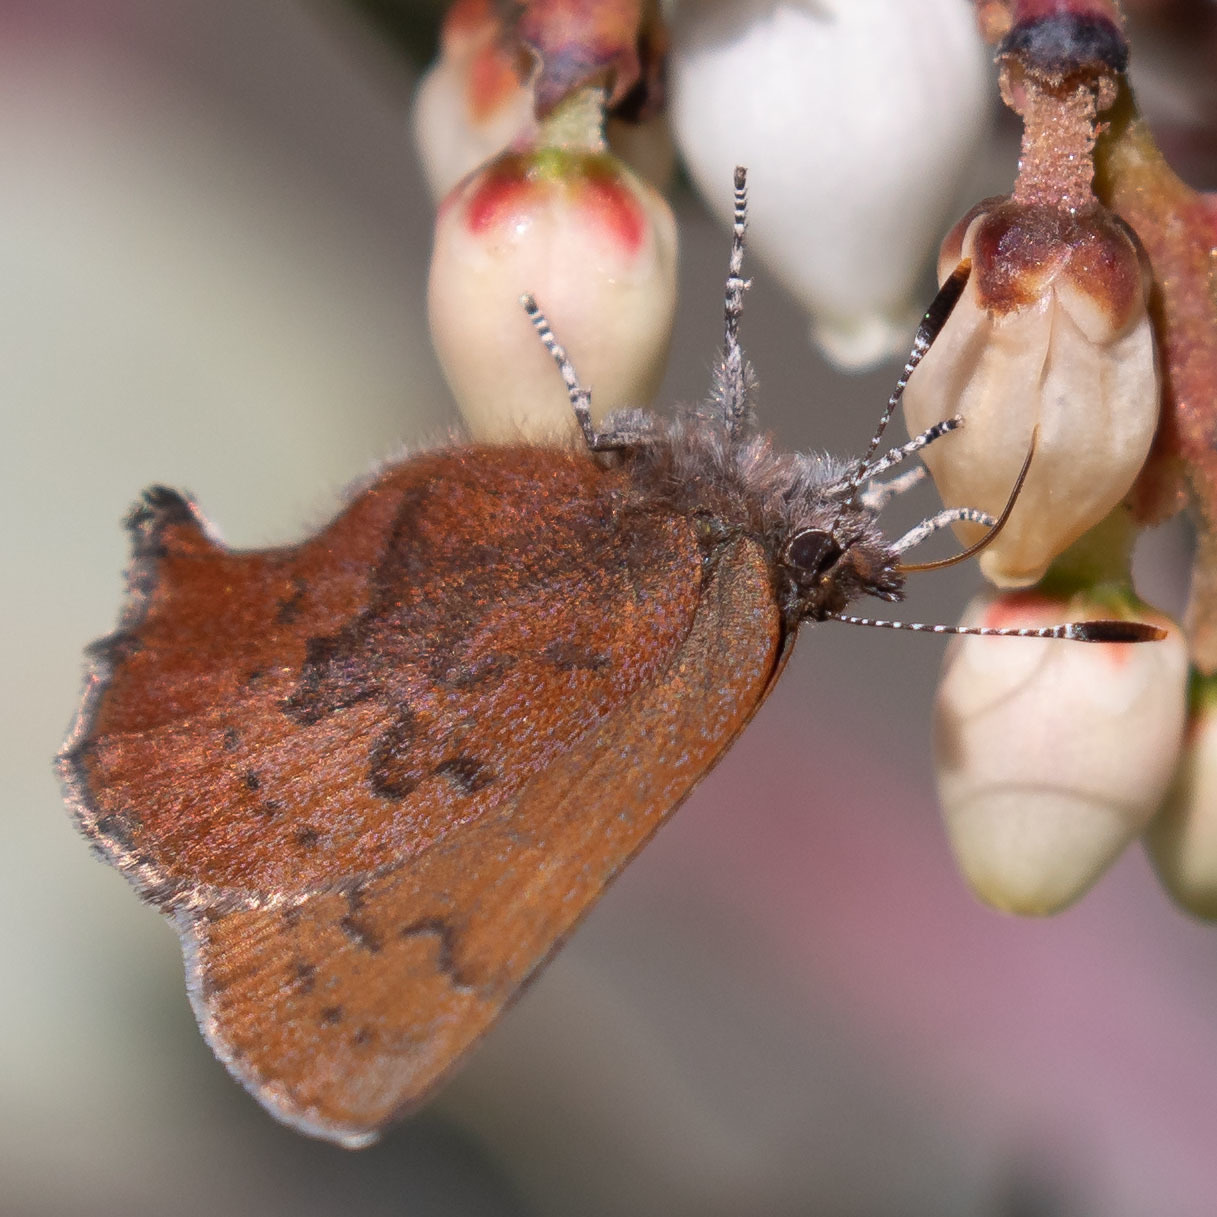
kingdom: Animalia
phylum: Arthropoda
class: Insecta
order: Lepidoptera
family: Lycaenidae
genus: Incisalia
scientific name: Incisalia irioides
